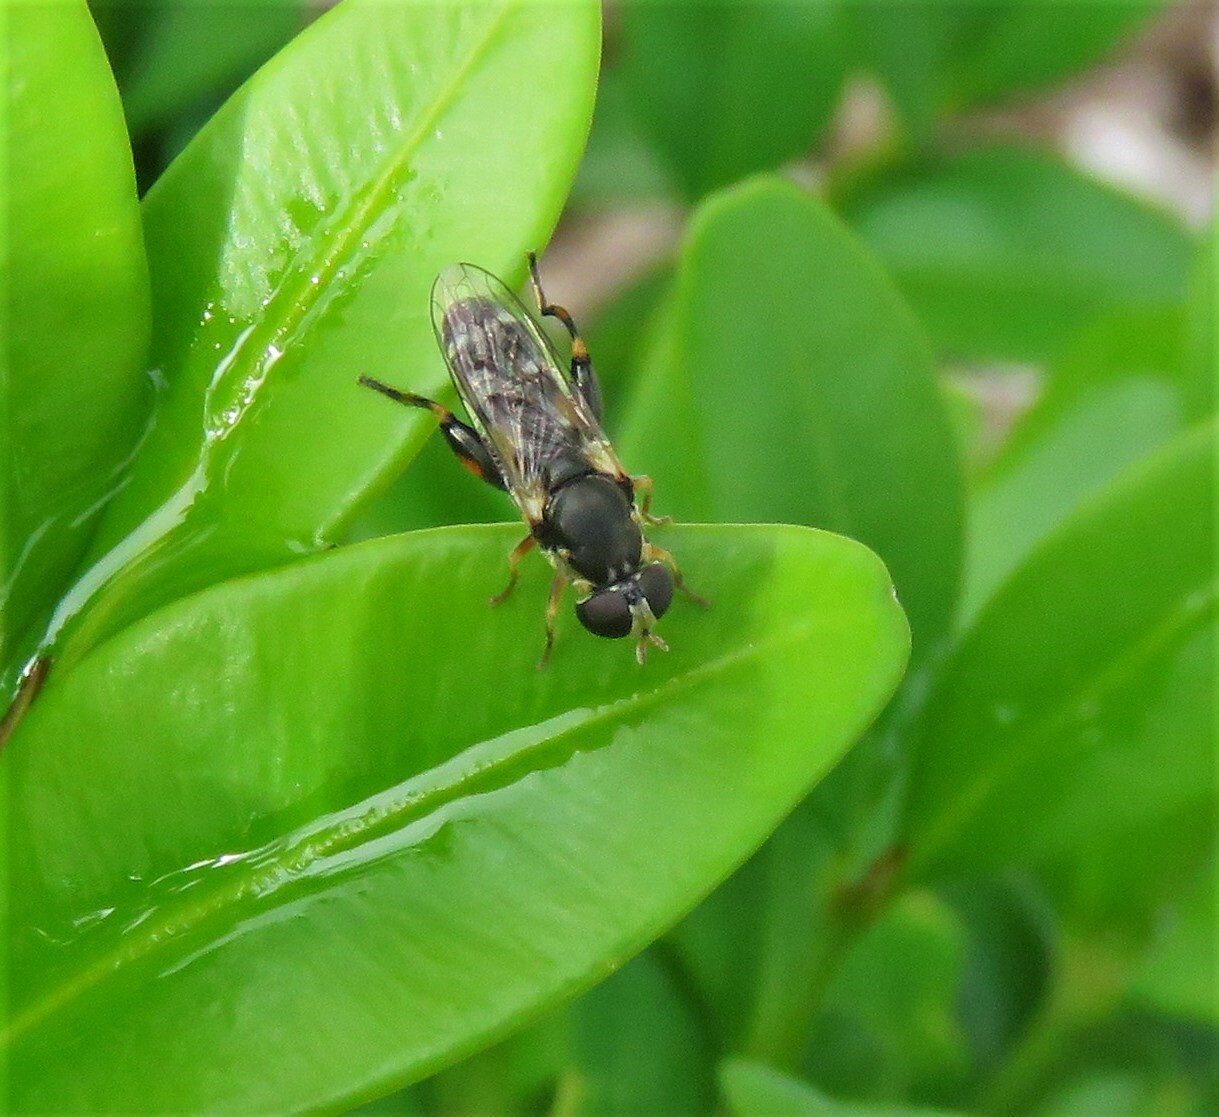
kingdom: Animalia
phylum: Arthropoda
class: Insecta
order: Diptera
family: Syrphidae
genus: Syritta
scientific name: Syritta pipiens
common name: Hover fly
